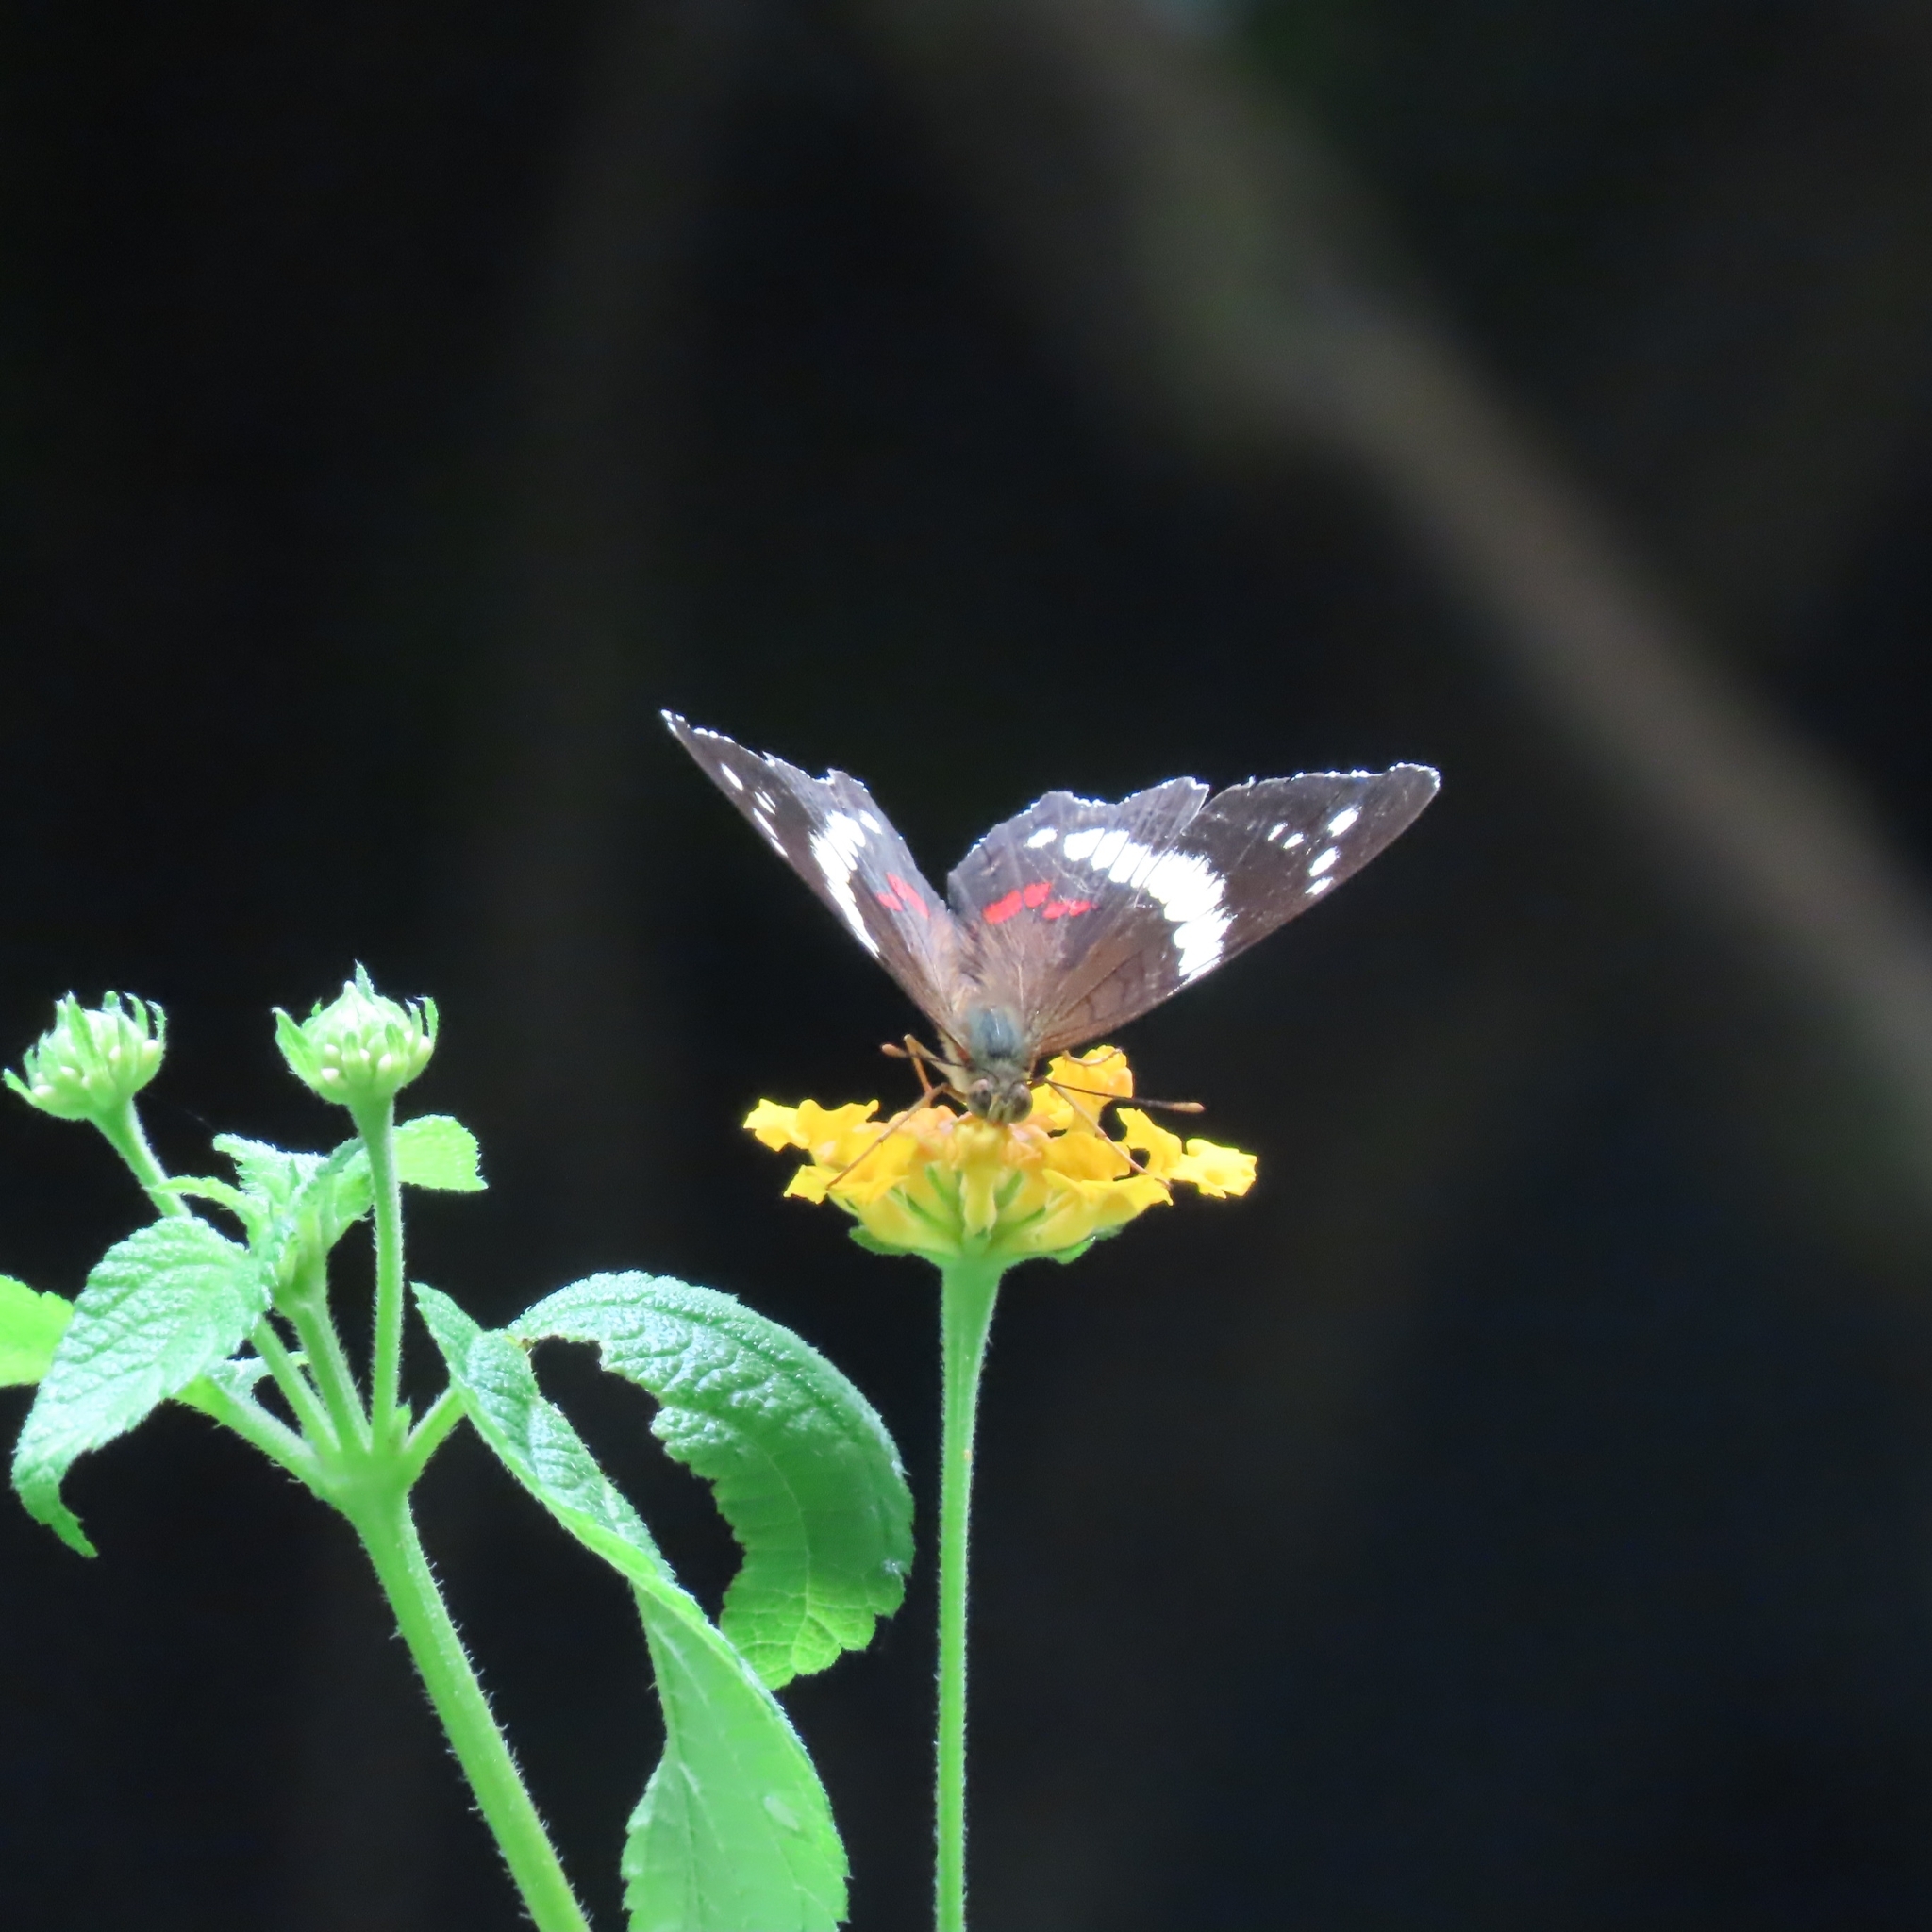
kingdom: Animalia
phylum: Arthropoda
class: Insecta
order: Lepidoptera
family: Nymphalidae
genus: Anartia
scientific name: Anartia fatima
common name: Banded peacock
